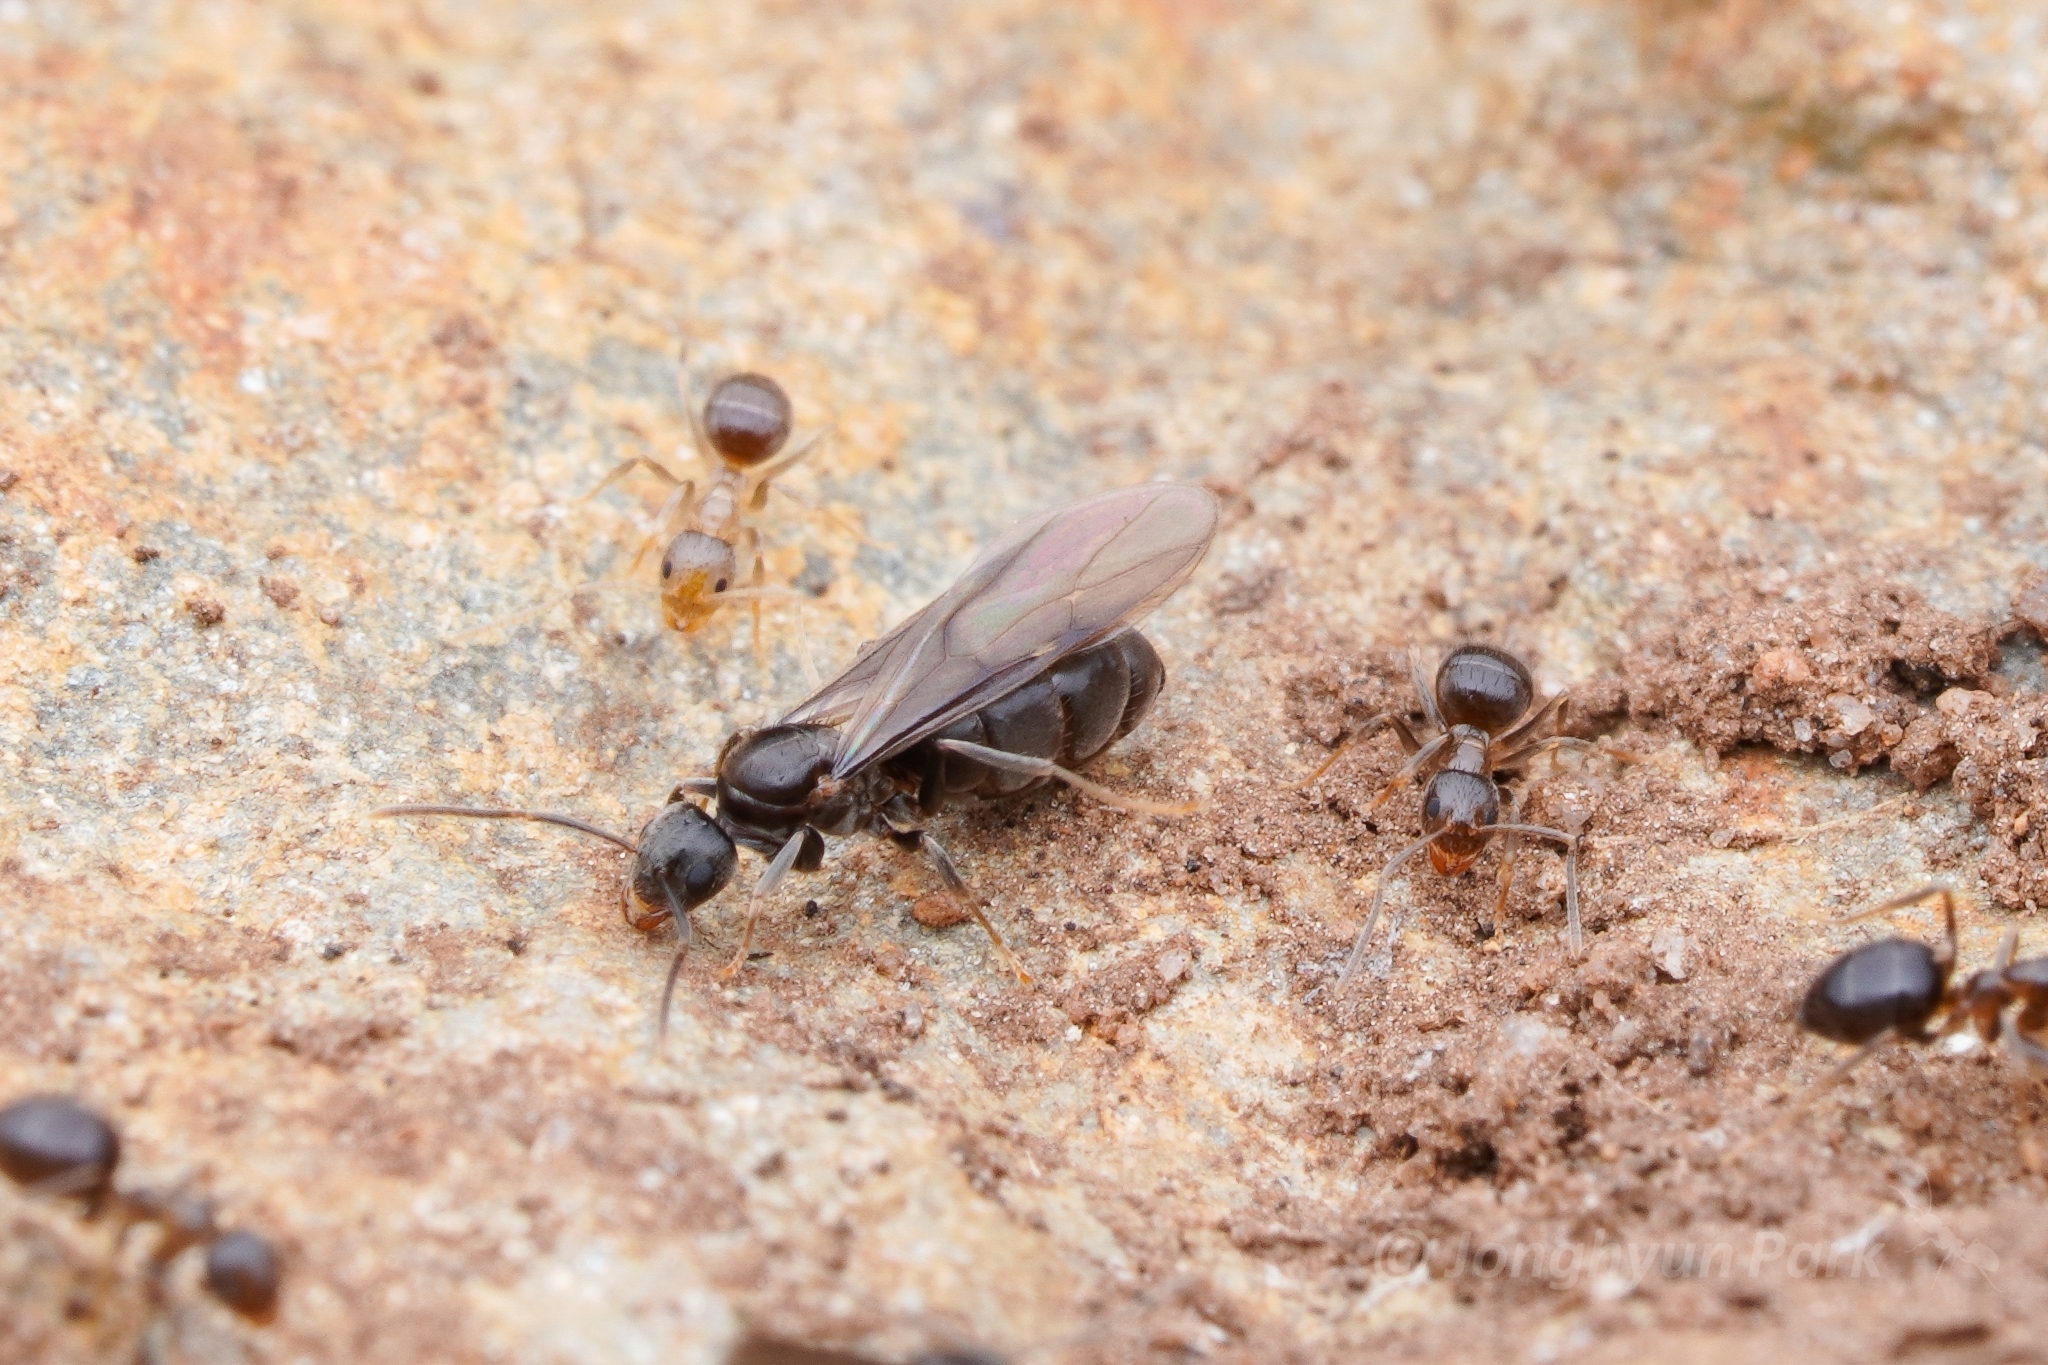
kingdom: Animalia
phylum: Arthropoda
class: Insecta
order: Hymenoptera
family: Formicidae
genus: Nylanderia
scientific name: Nylanderia natalenis
